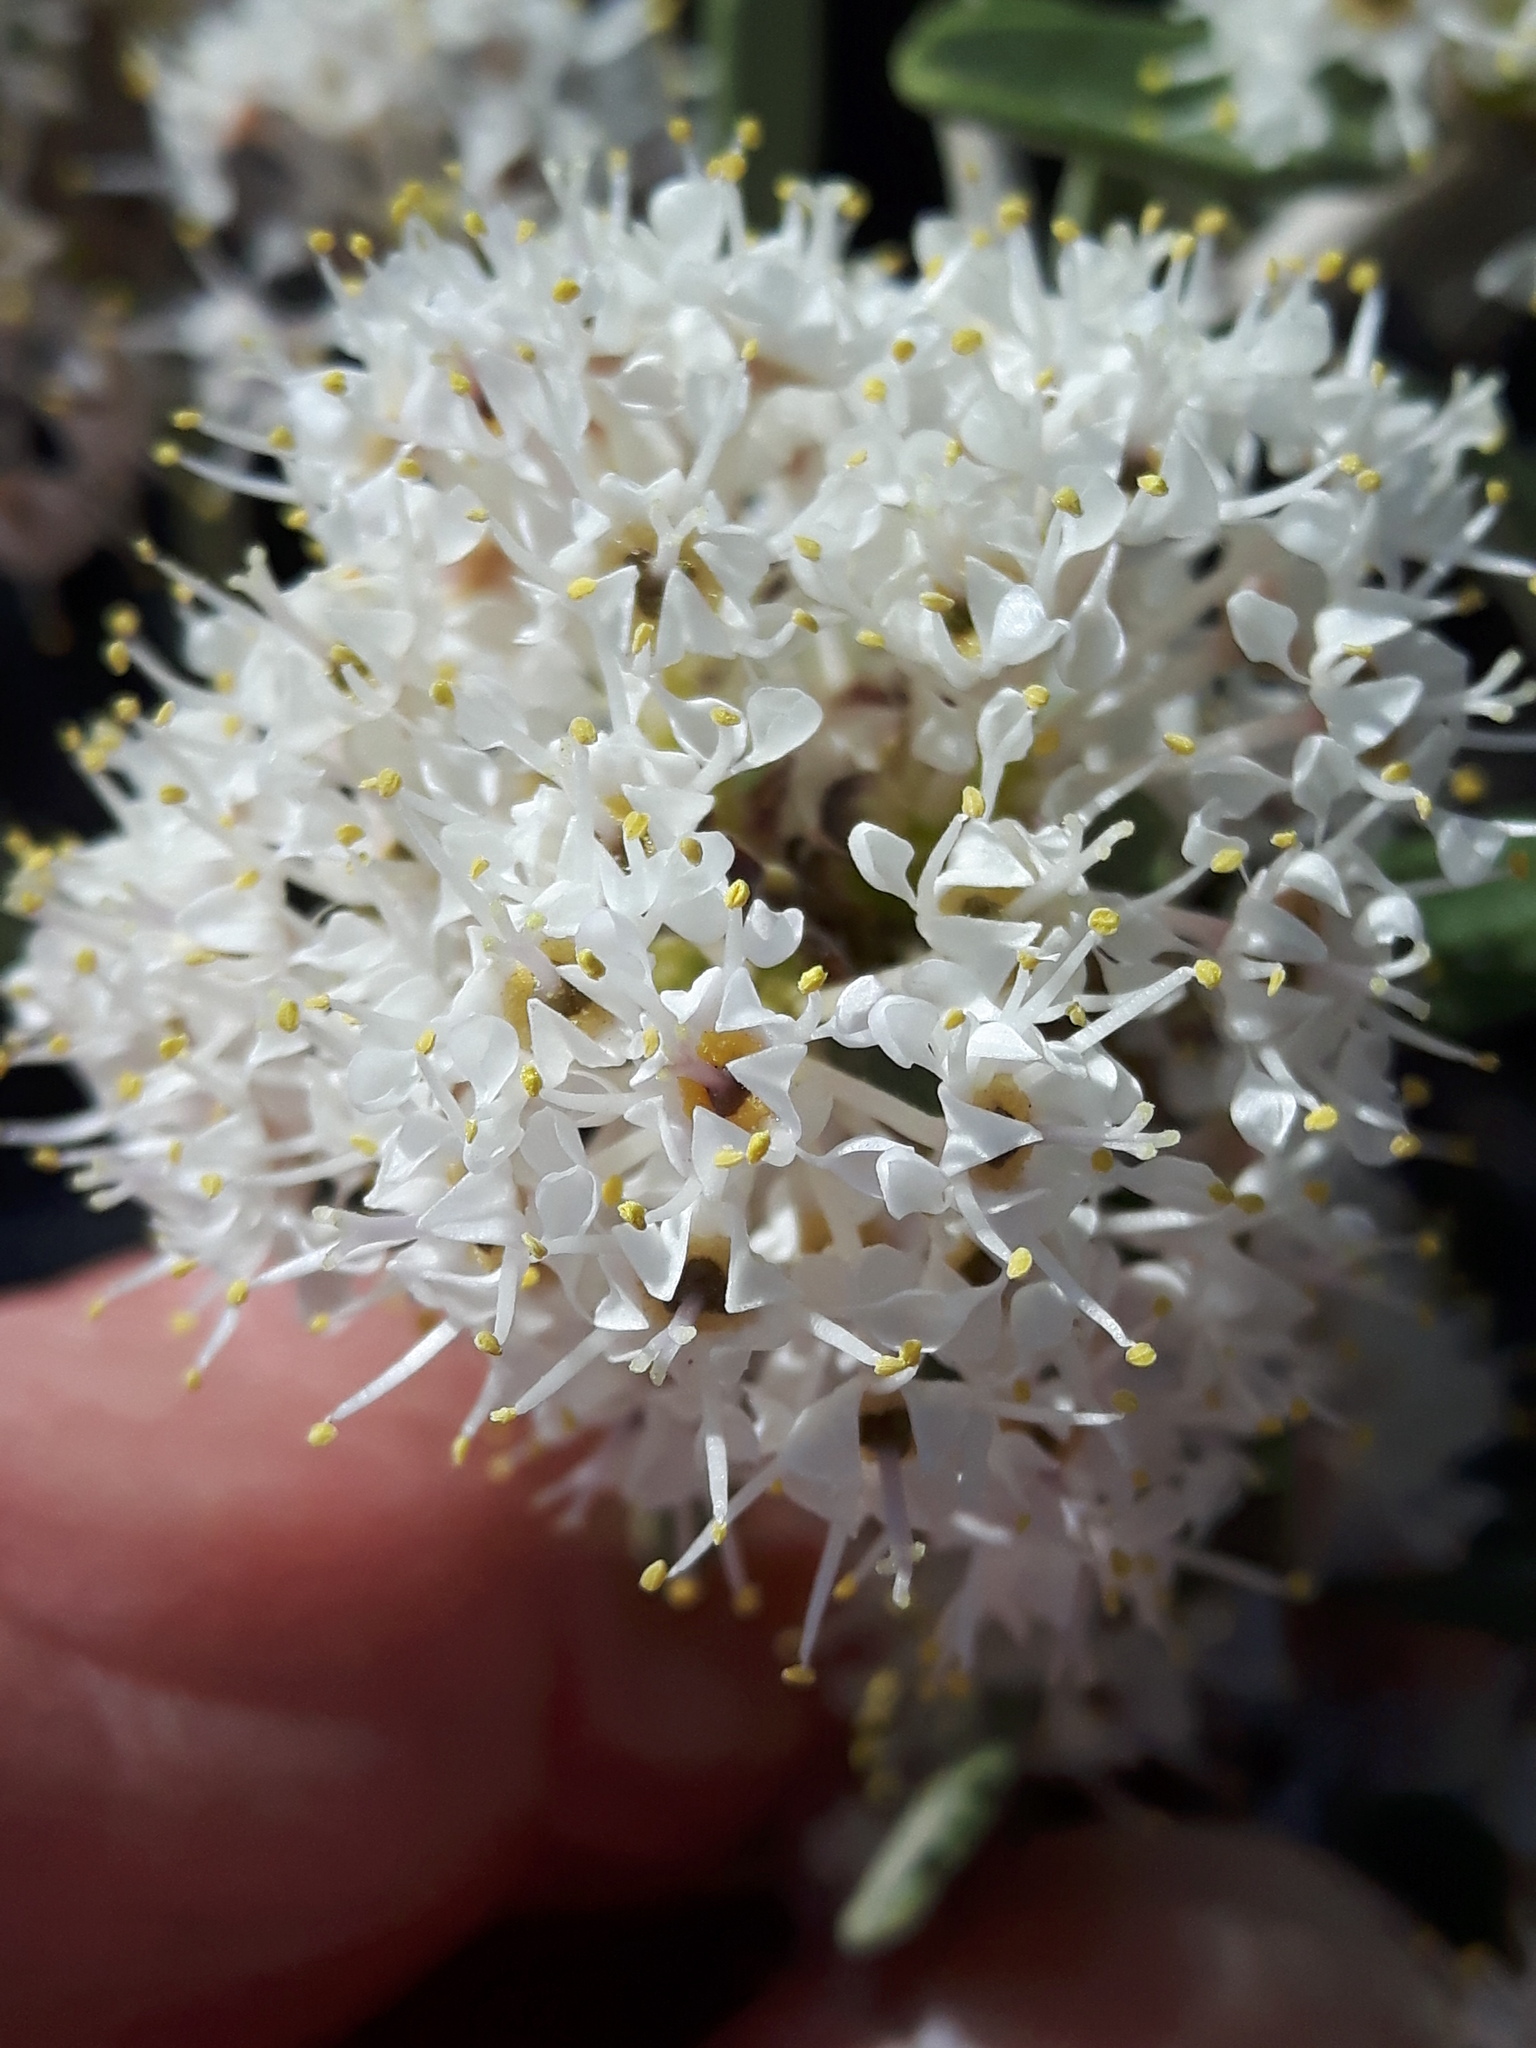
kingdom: Plantae
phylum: Tracheophyta
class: Magnoliopsida
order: Rosales
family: Rhamnaceae
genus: Ceanothus
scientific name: Ceanothus pauciflorus
